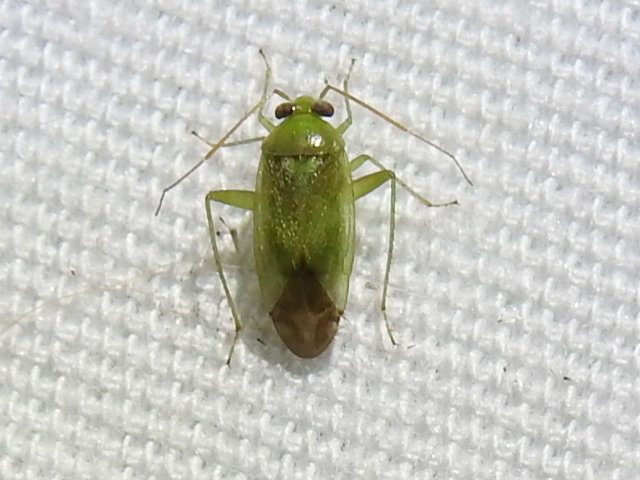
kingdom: Animalia
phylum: Arthropoda
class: Insecta
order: Hemiptera
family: Miridae
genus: Taylorilygus
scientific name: Taylorilygus apicalis
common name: Plant bug
